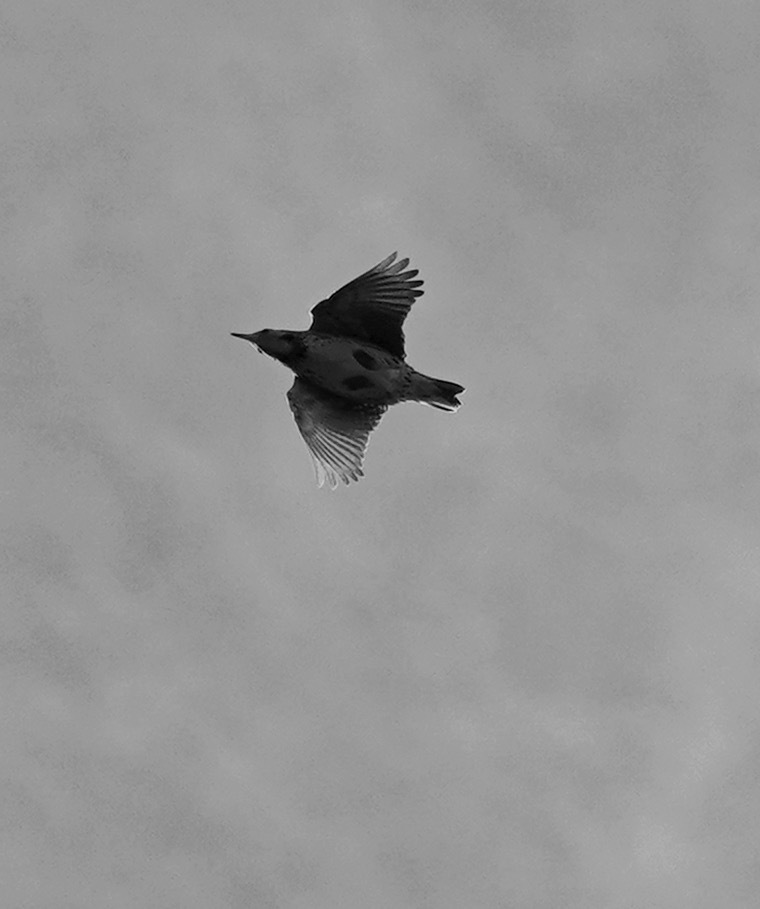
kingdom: Animalia
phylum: Chordata
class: Aves
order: Passeriformes
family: Icteridae
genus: Sturnella
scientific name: Sturnella neglecta
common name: Western meadowlark
